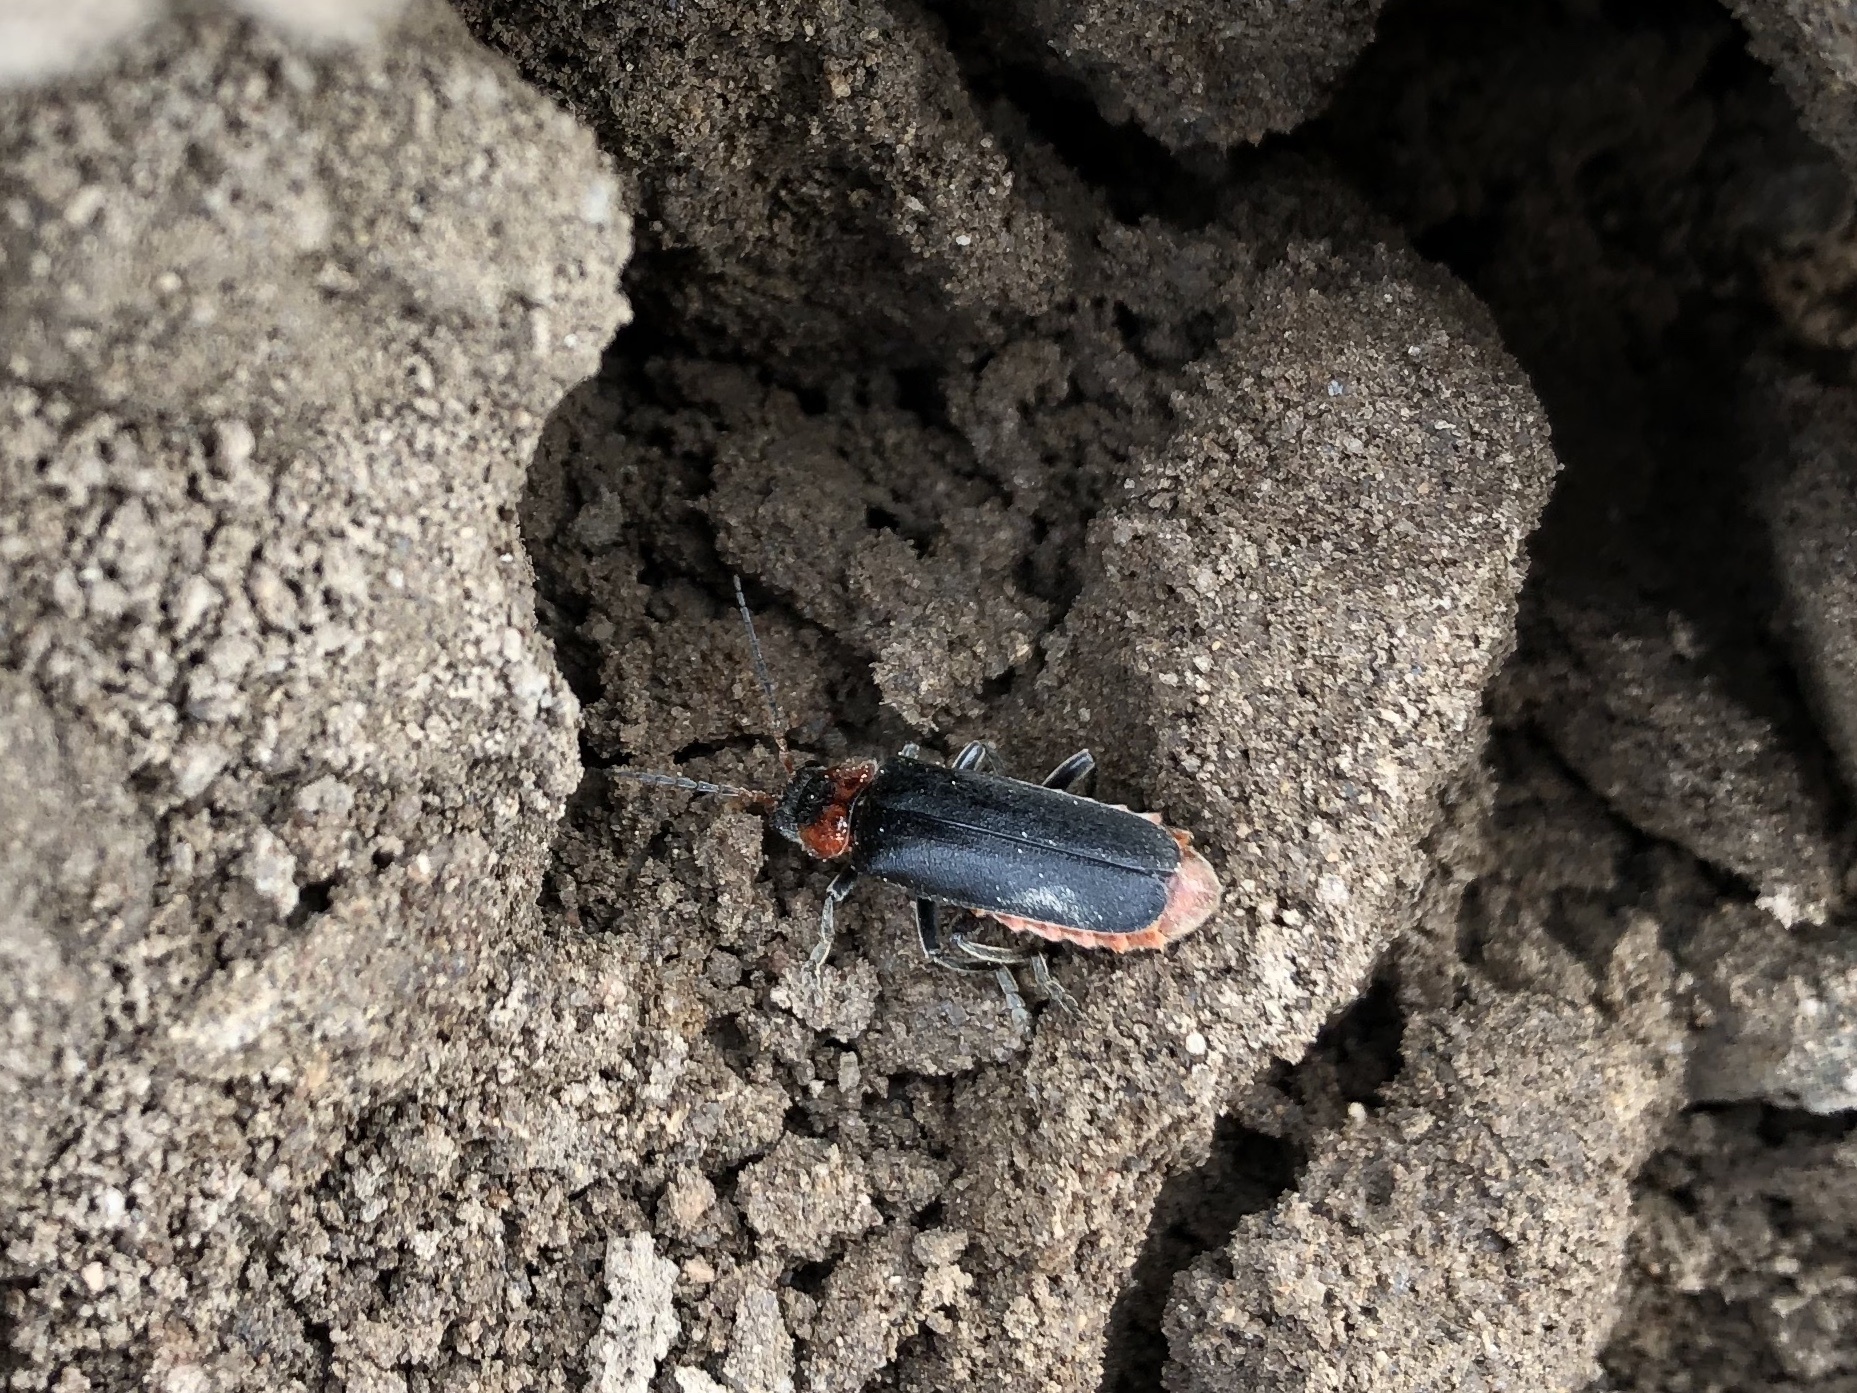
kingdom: Animalia
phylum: Arthropoda
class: Insecta
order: Coleoptera
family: Cantharidae
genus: Cantharis
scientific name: Cantharis fusca
